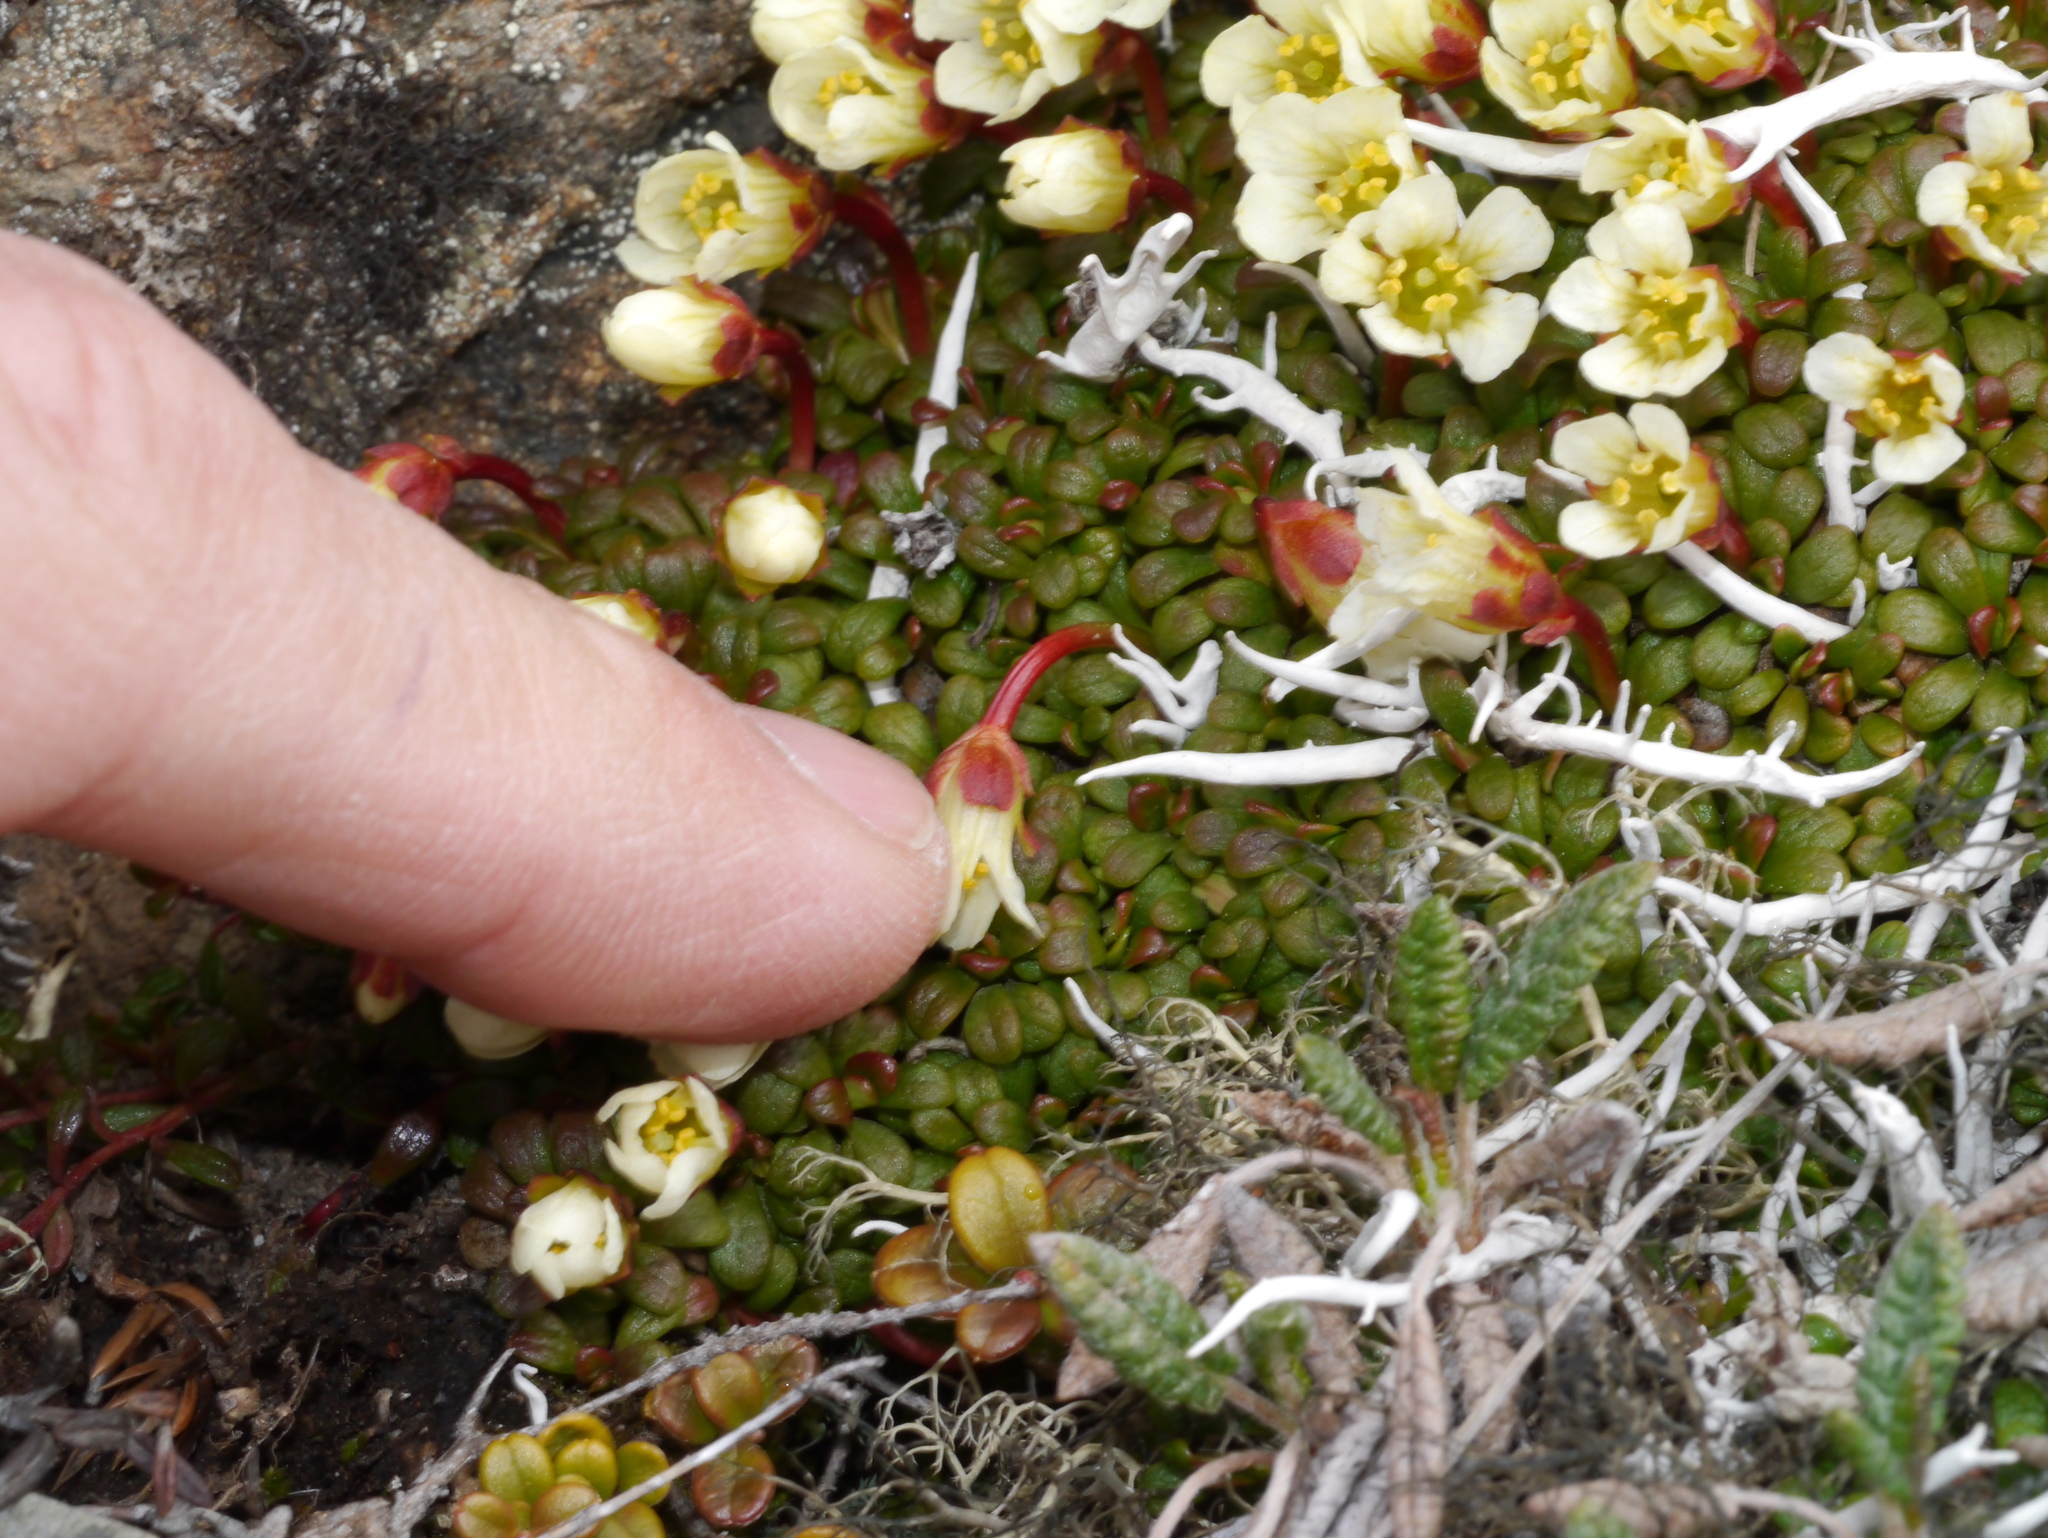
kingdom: Plantae
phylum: Tracheophyta
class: Magnoliopsida
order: Ericales
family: Diapensiaceae
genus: Diapensia
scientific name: Diapensia obovata
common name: Alaska diapensia
